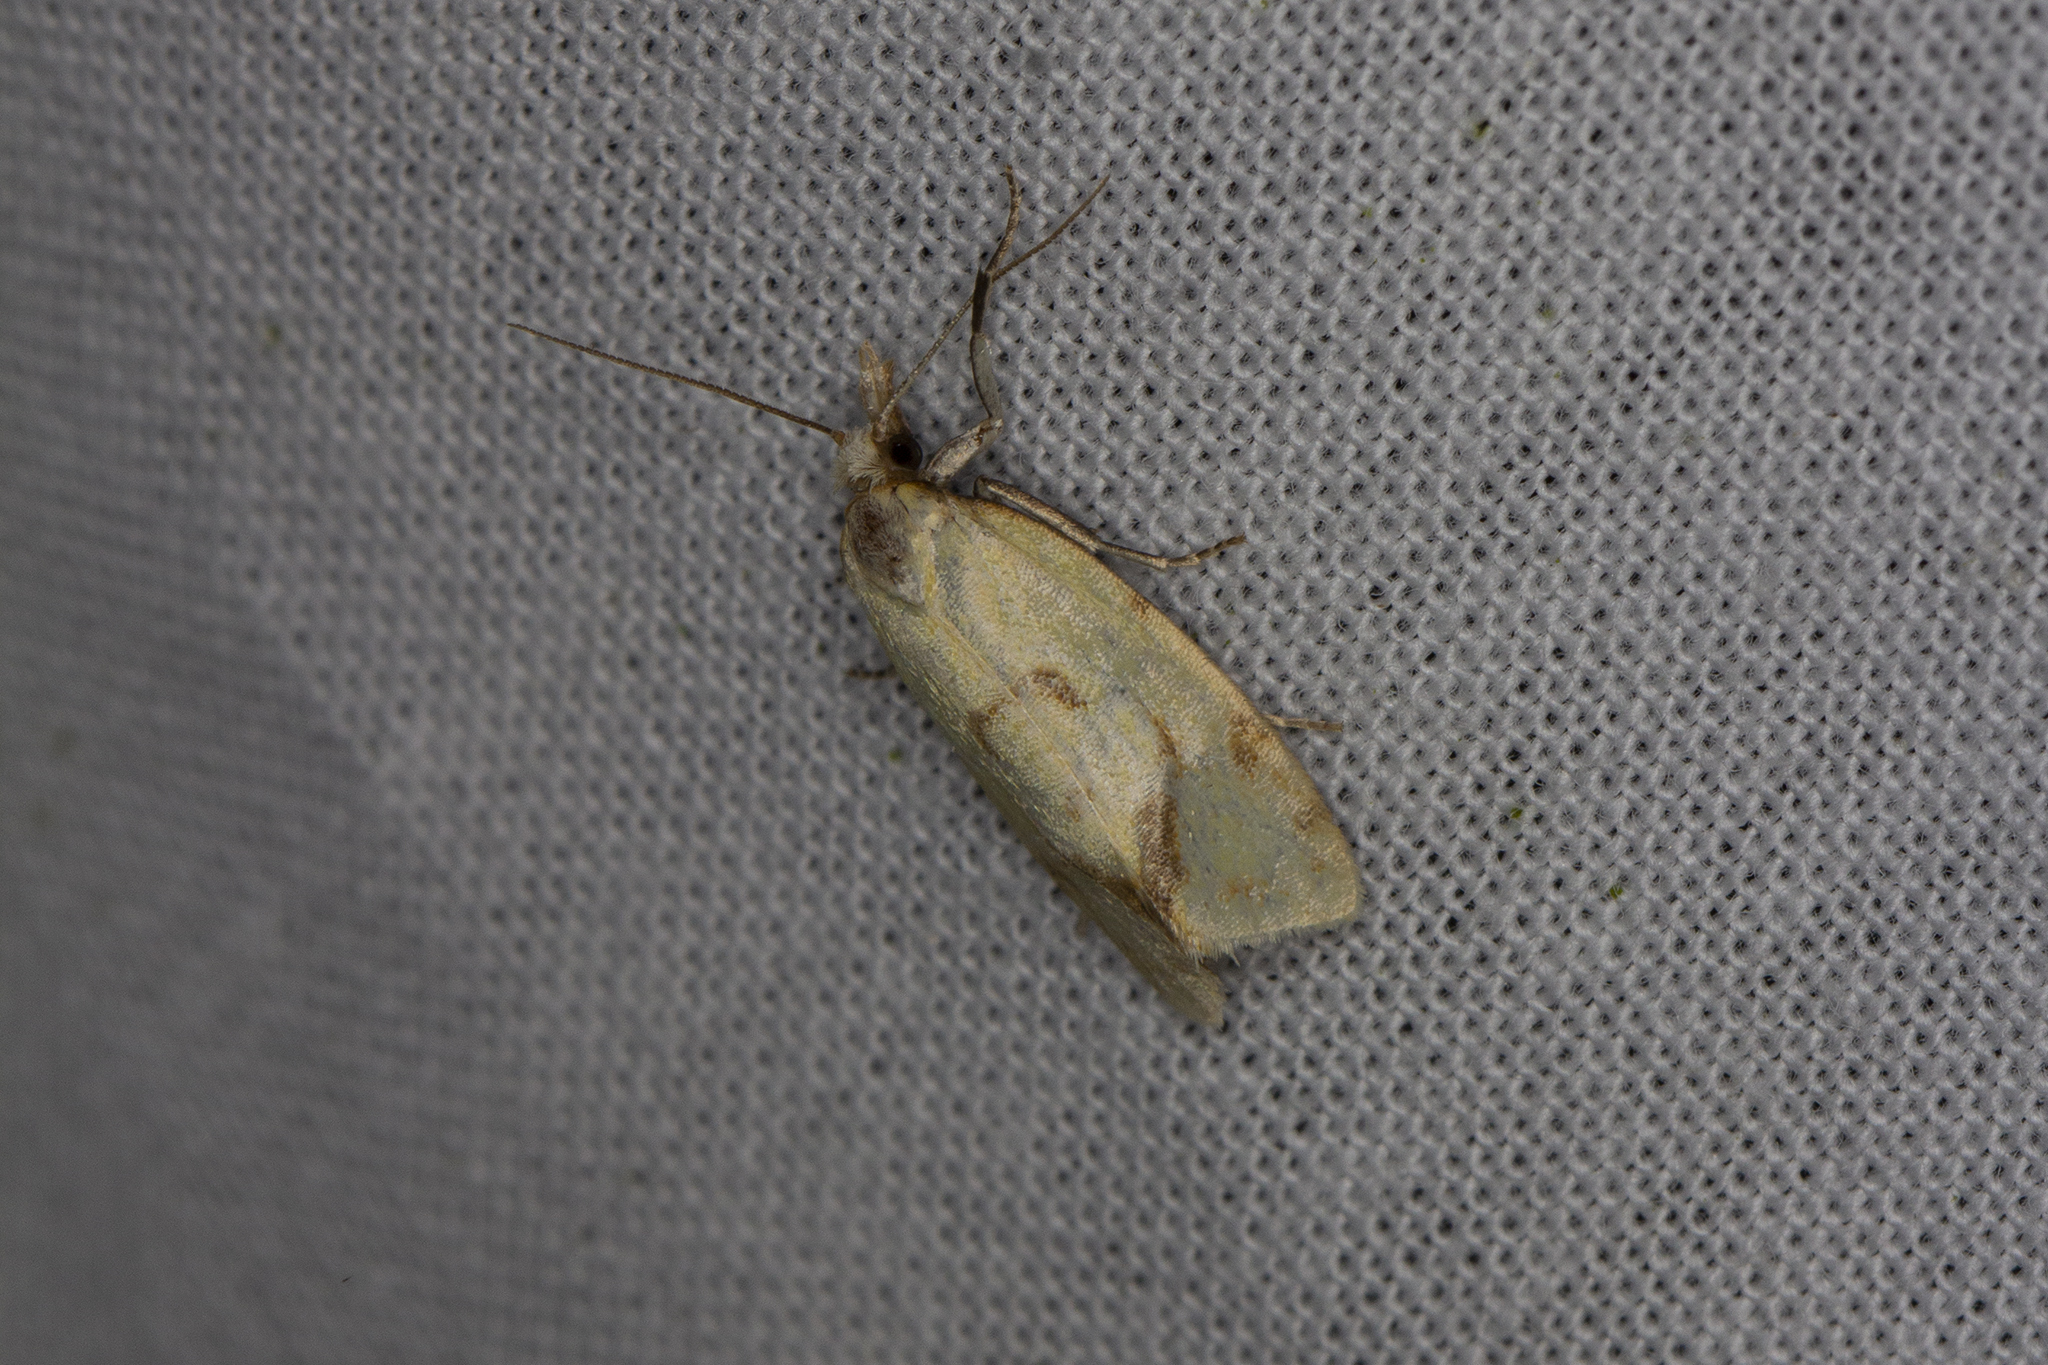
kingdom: Animalia
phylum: Arthropoda
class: Insecta
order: Lepidoptera
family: Tortricidae
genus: Agapeta
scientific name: Agapeta hamana
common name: Common yellow conch
